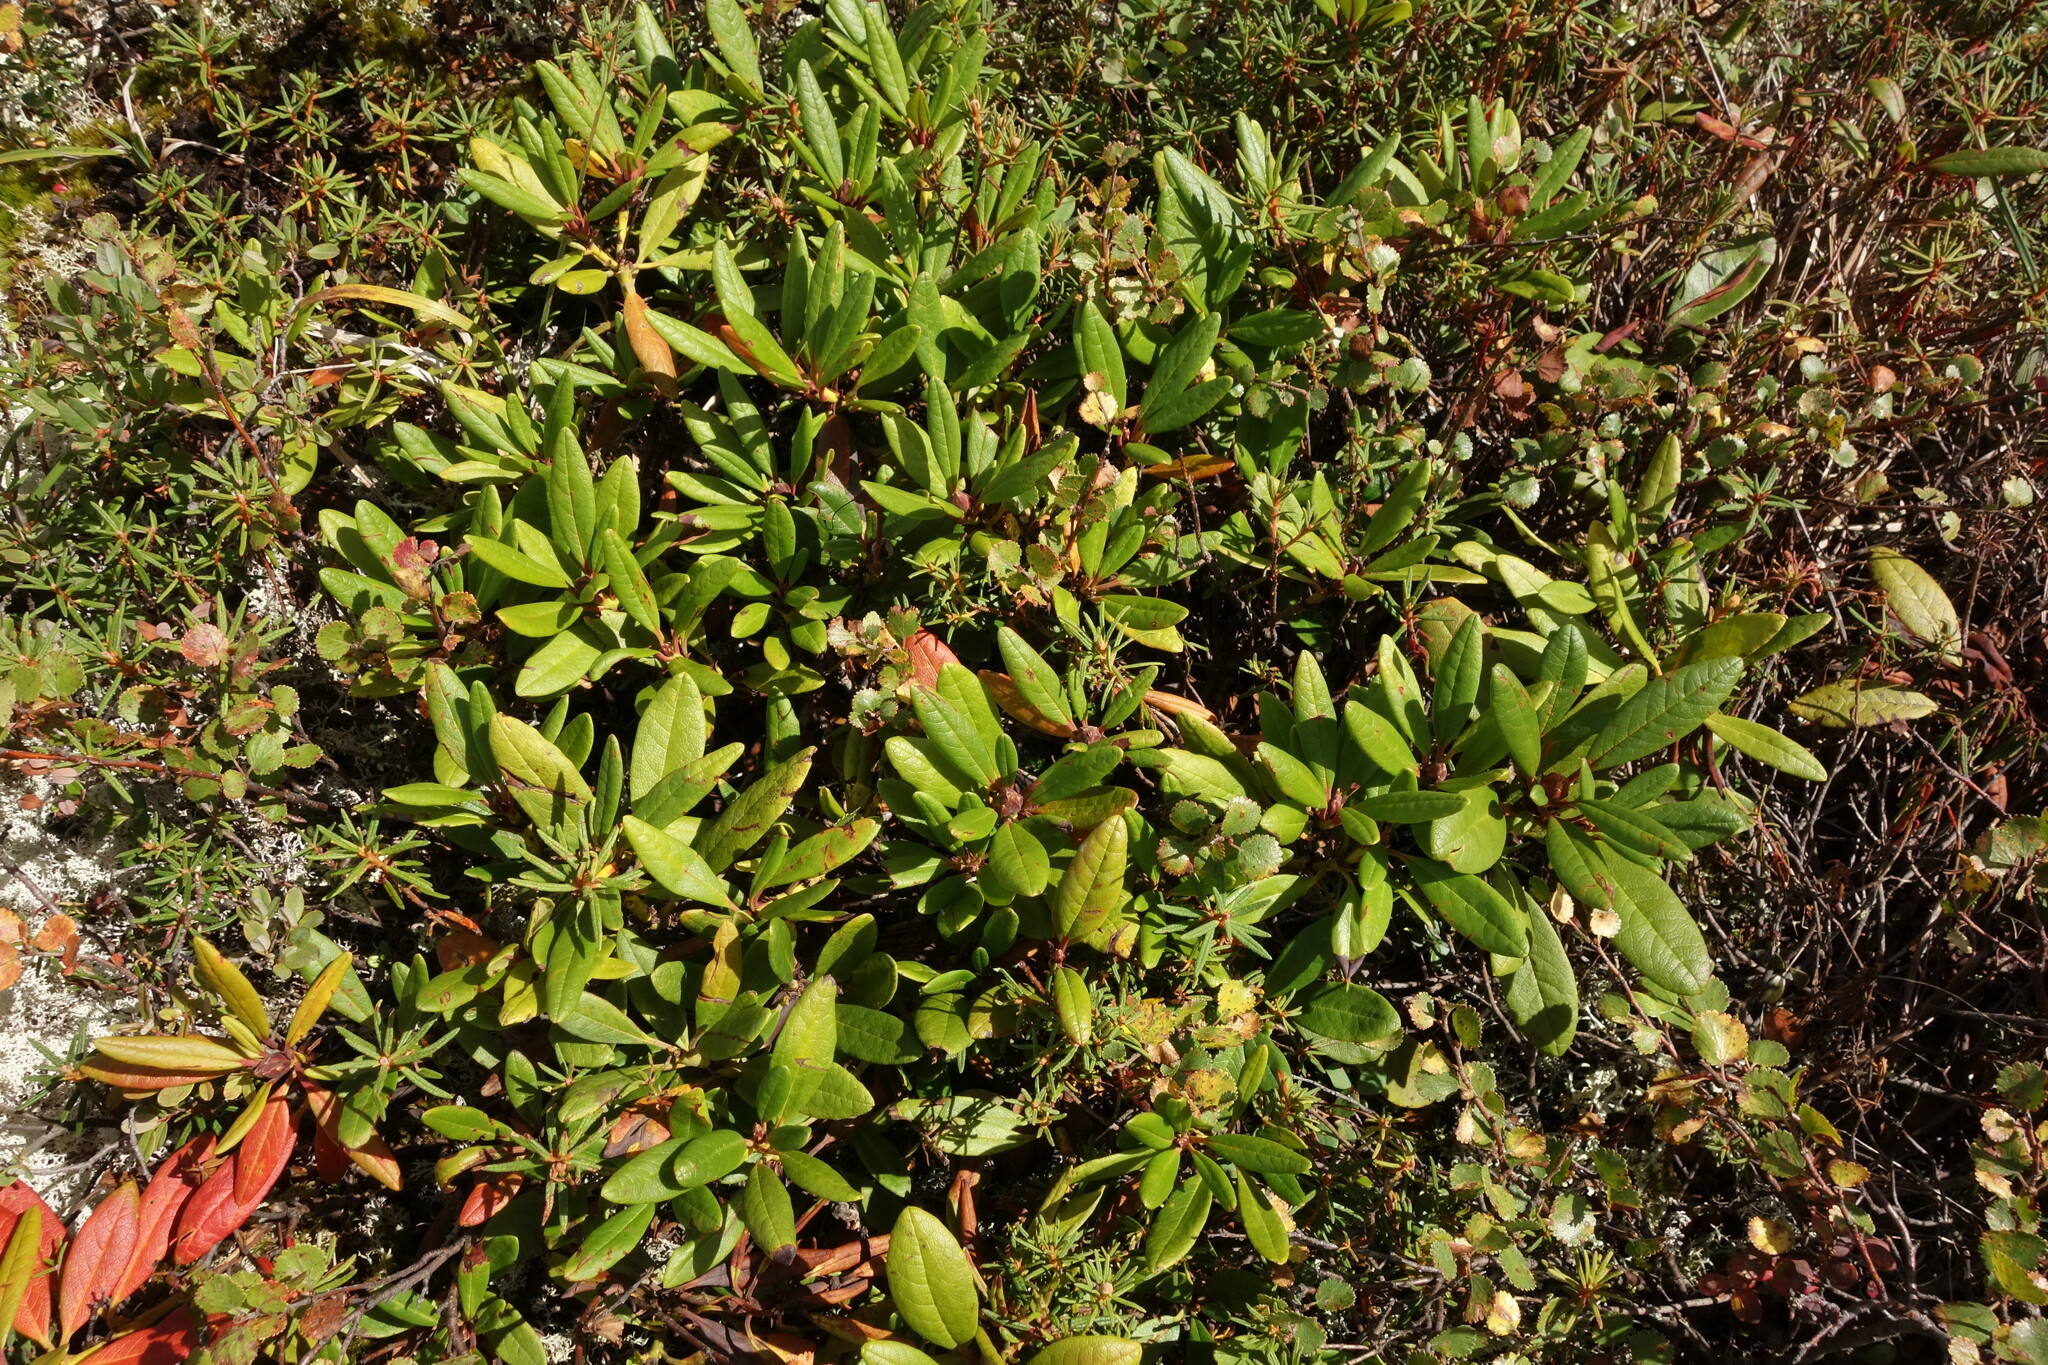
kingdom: Plantae
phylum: Tracheophyta
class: Magnoliopsida
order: Ericales
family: Ericaceae
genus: Rhododendron
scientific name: Rhododendron aureum
